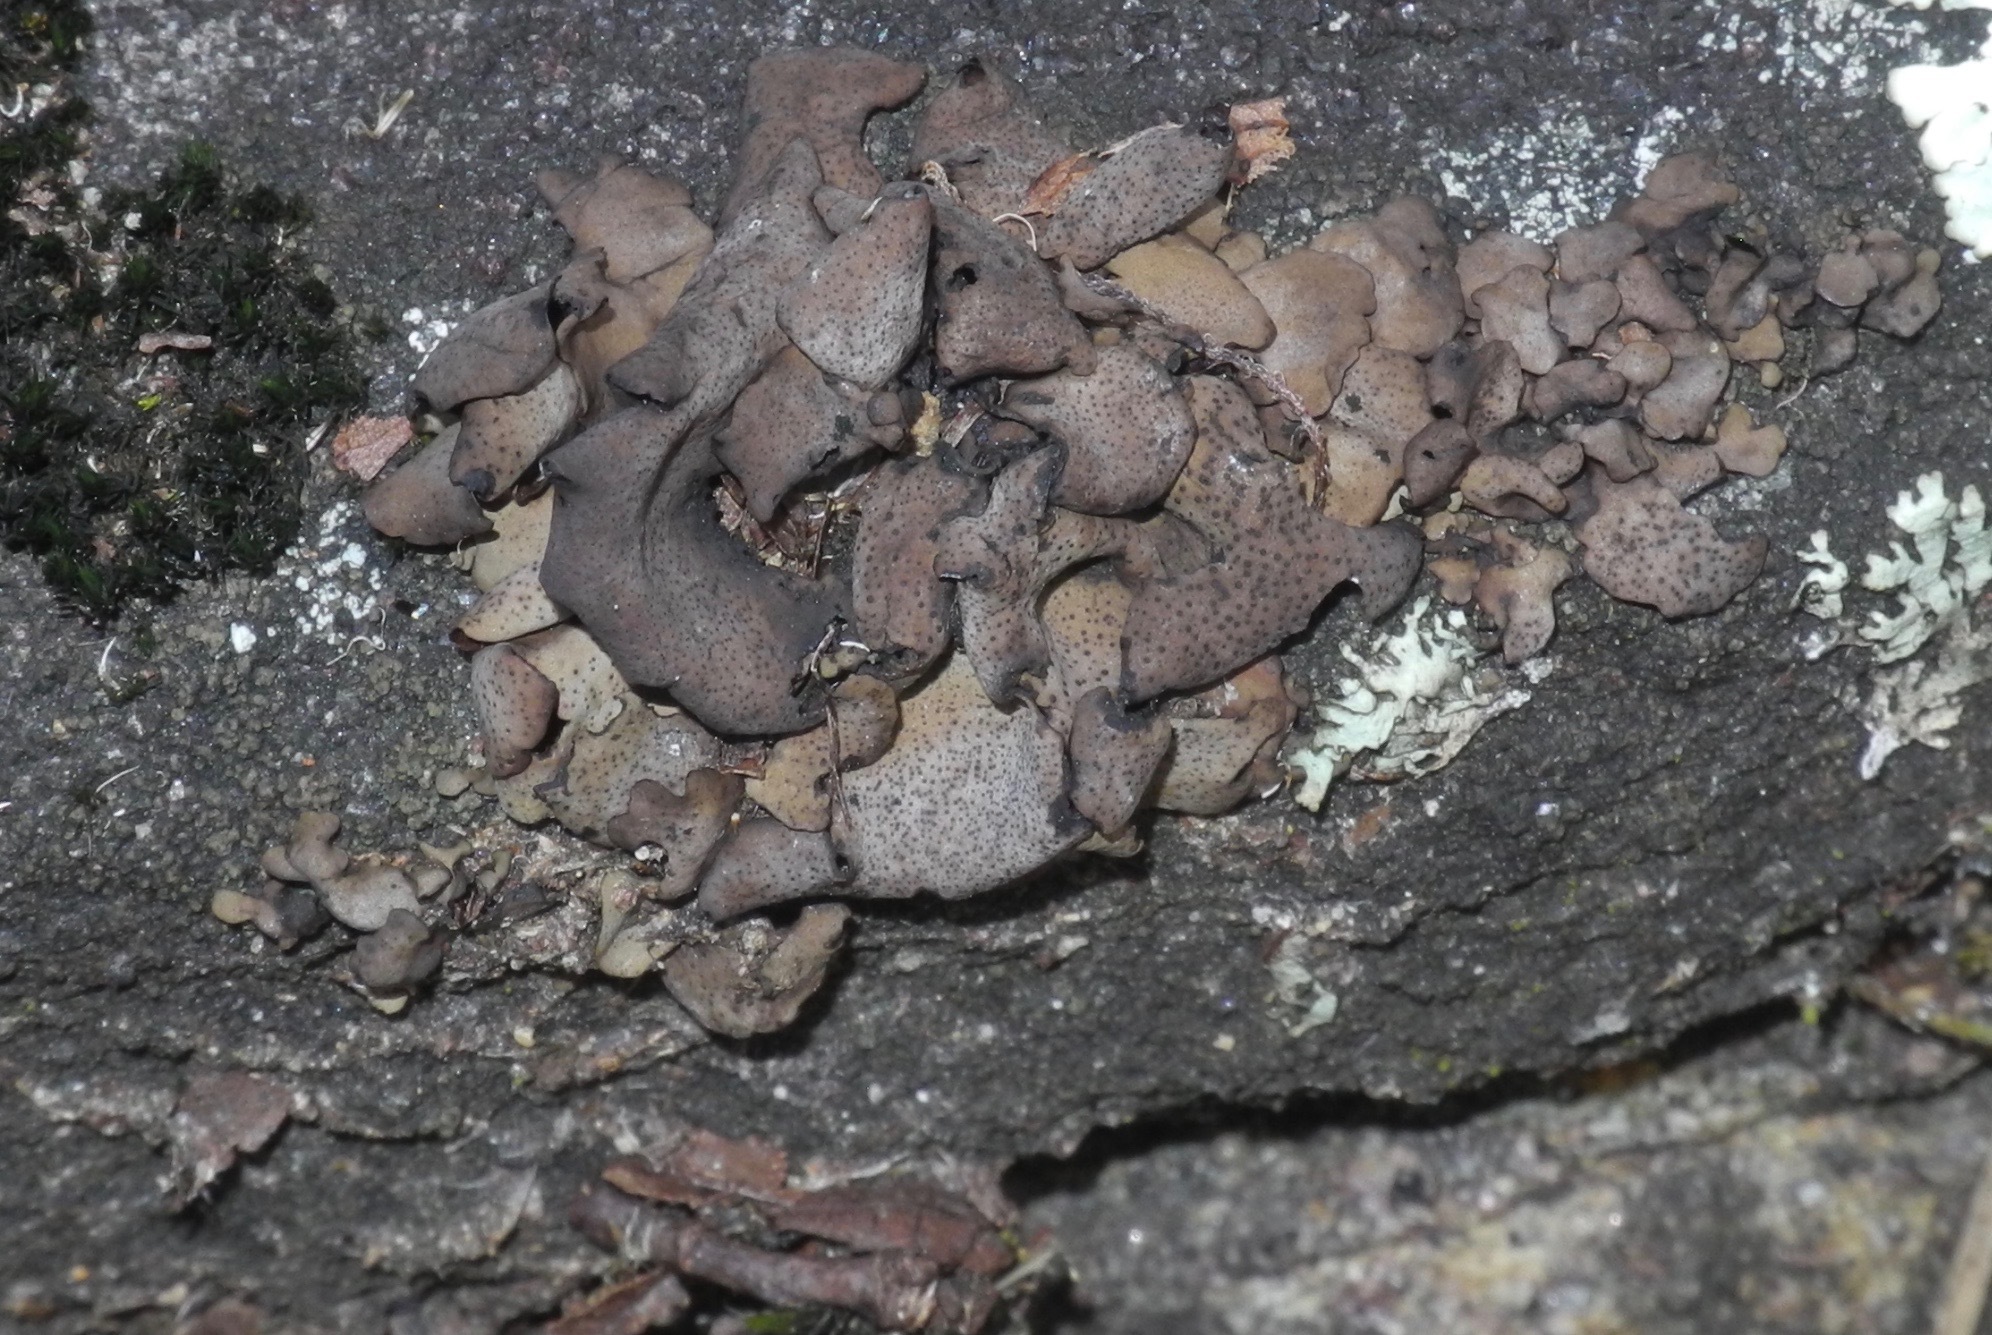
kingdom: Fungi
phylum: Ascomycota
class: Eurotiomycetes
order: Verrucariales
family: Verrucariaceae
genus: Dermatocarpon
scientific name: Dermatocarpon muhlenbergii
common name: Muhlenberg's stippleback lichen
